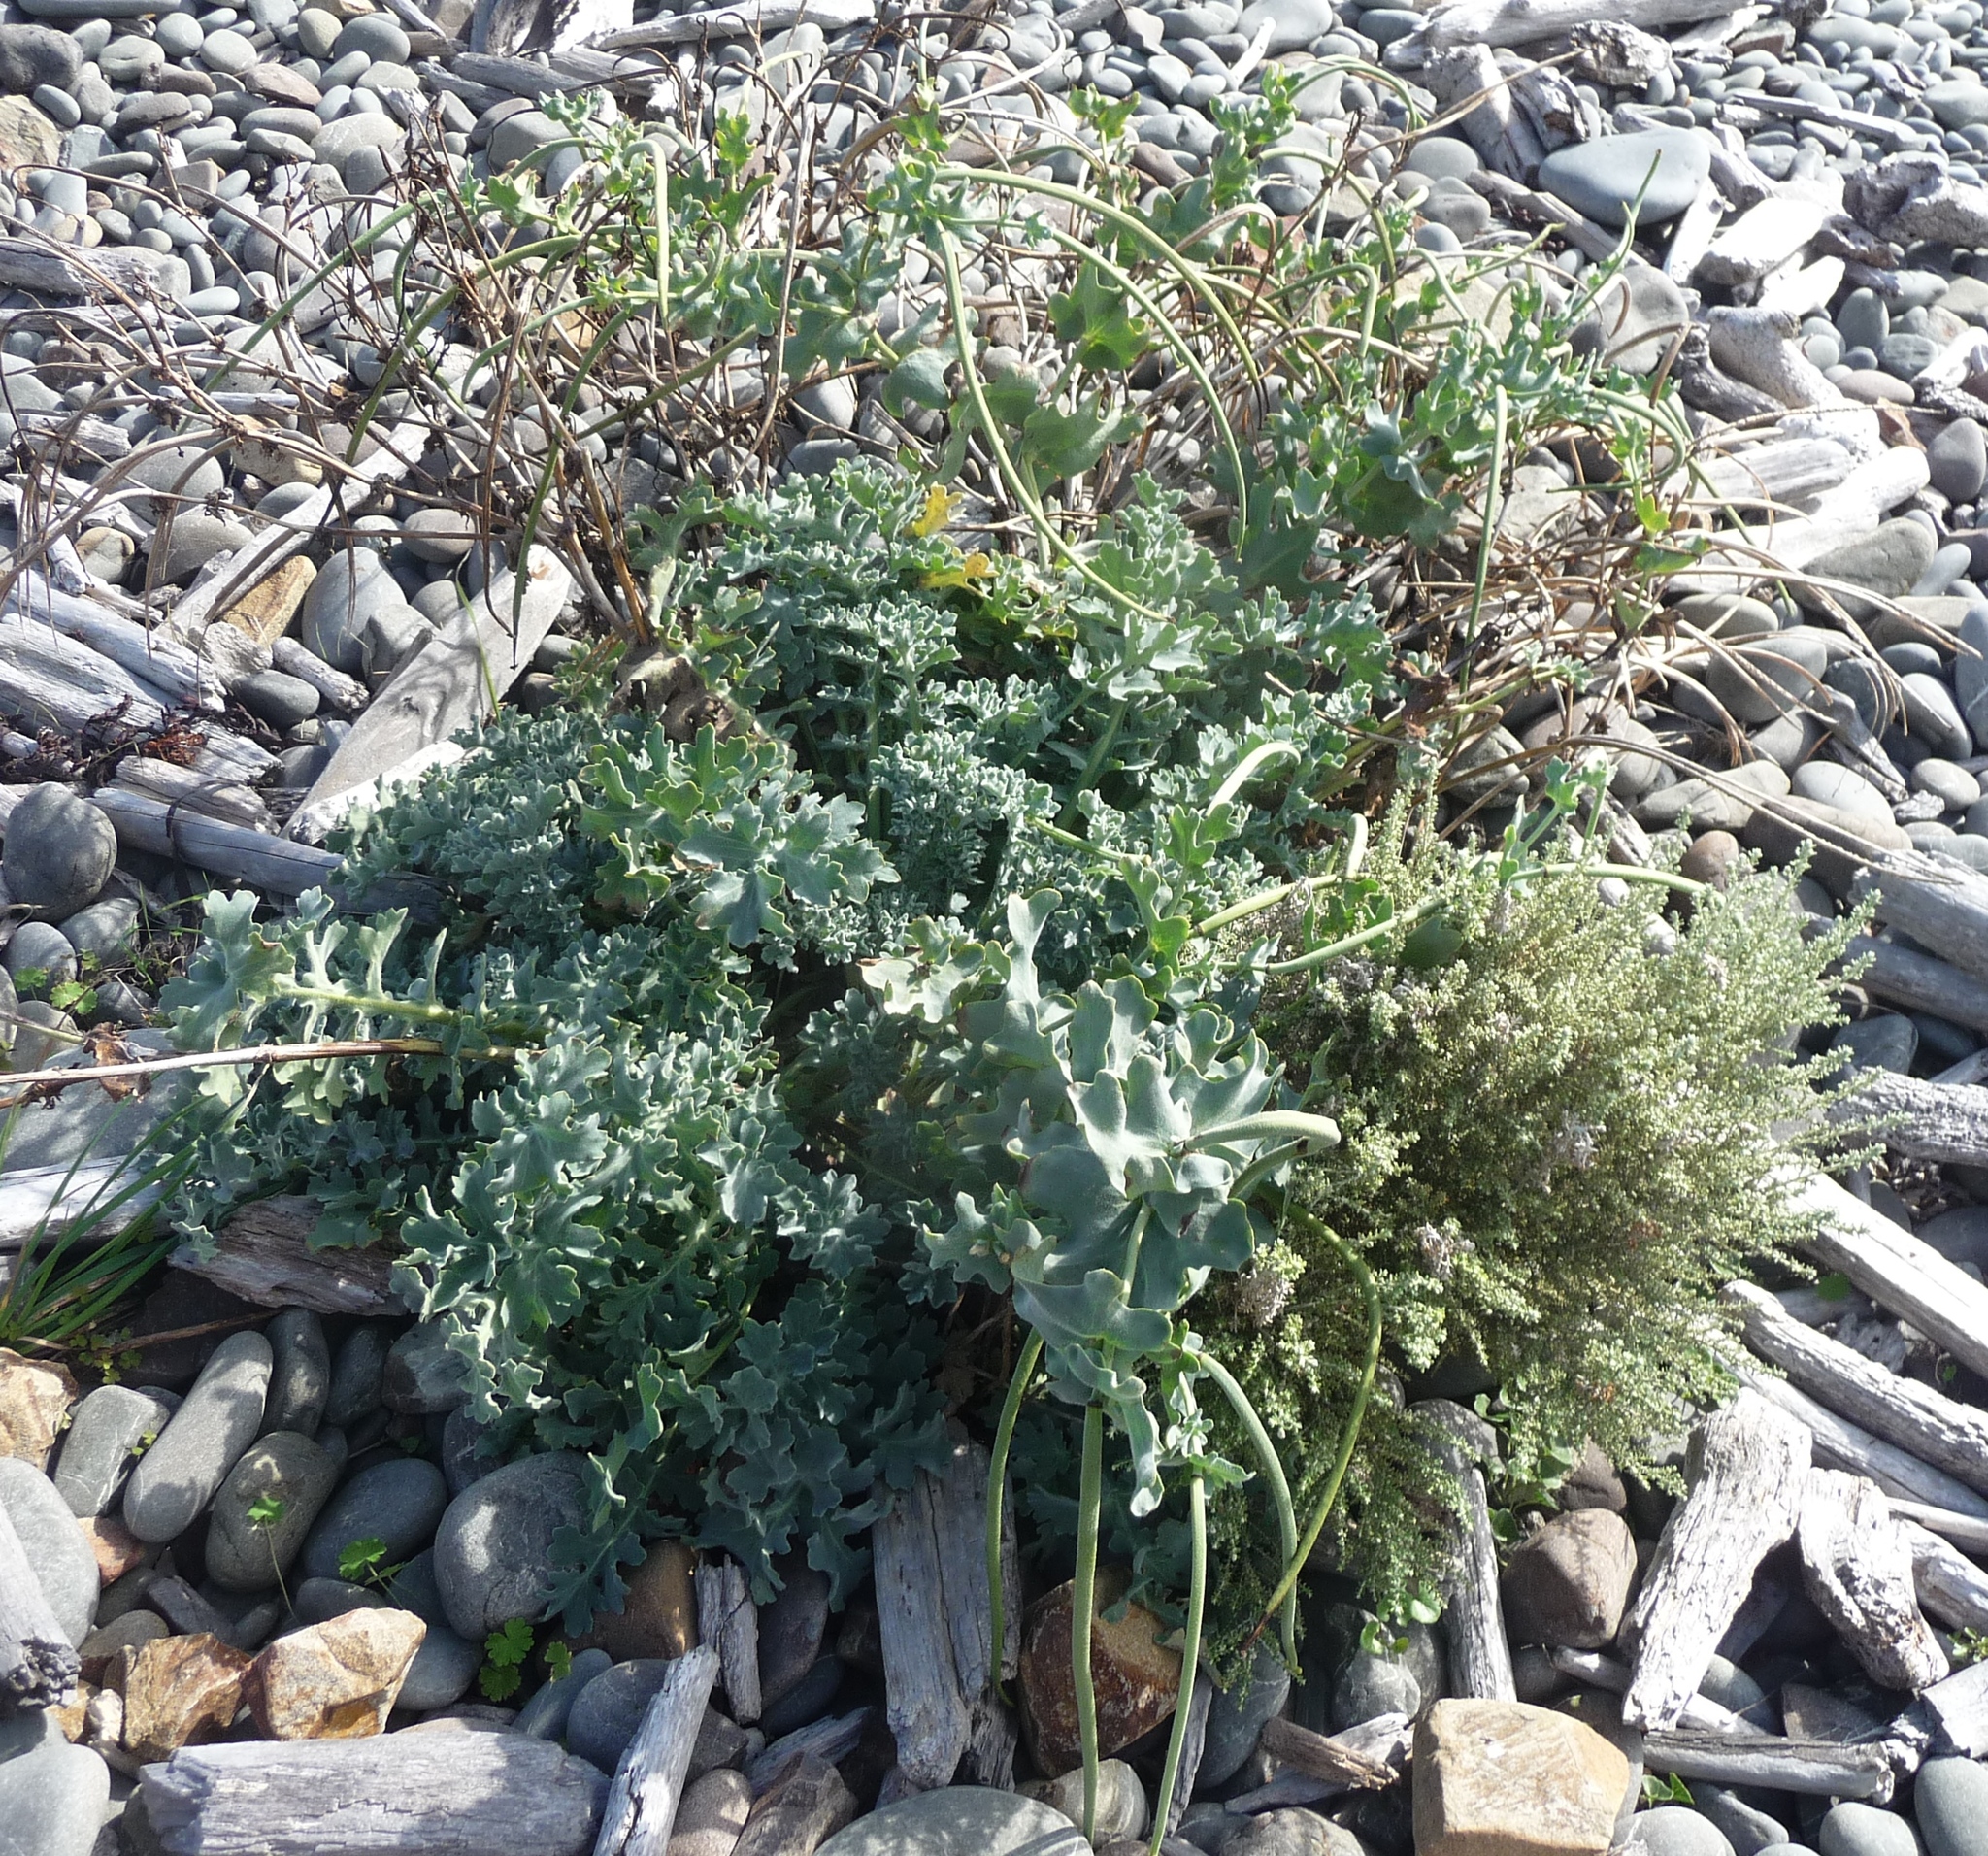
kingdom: Plantae
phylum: Tracheophyta
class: Magnoliopsida
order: Ranunculales
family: Papaveraceae
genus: Glaucium
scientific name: Glaucium flavum
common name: Yellow horned-poppy
